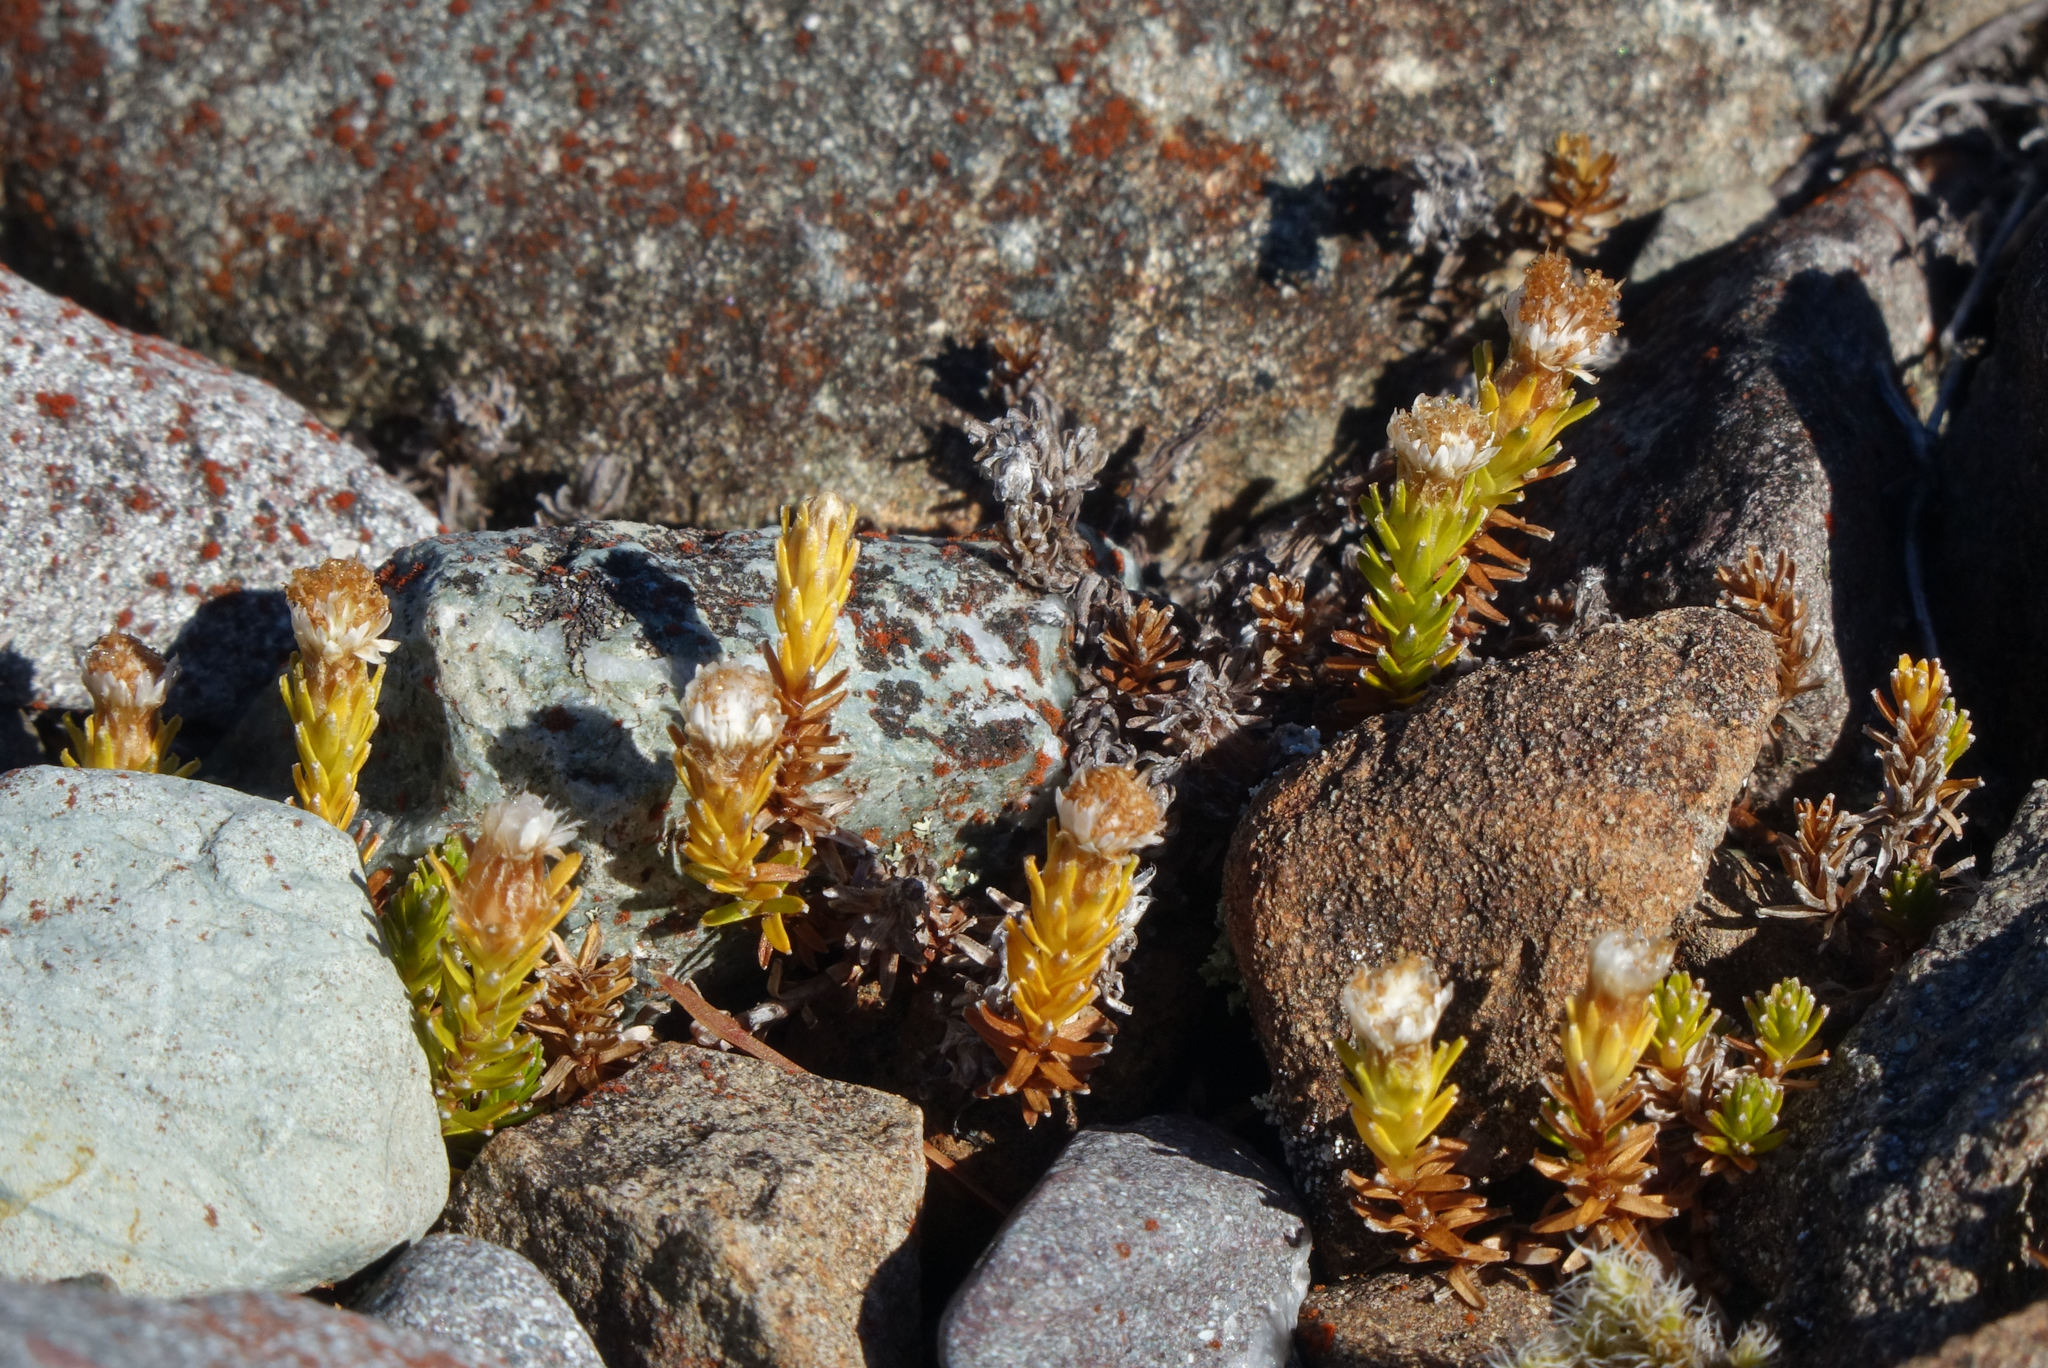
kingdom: Plantae
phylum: Tracheophyta
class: Magnoliopsida
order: Asterales
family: Asteraceae
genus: Raoulia
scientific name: Raoulia glabra
